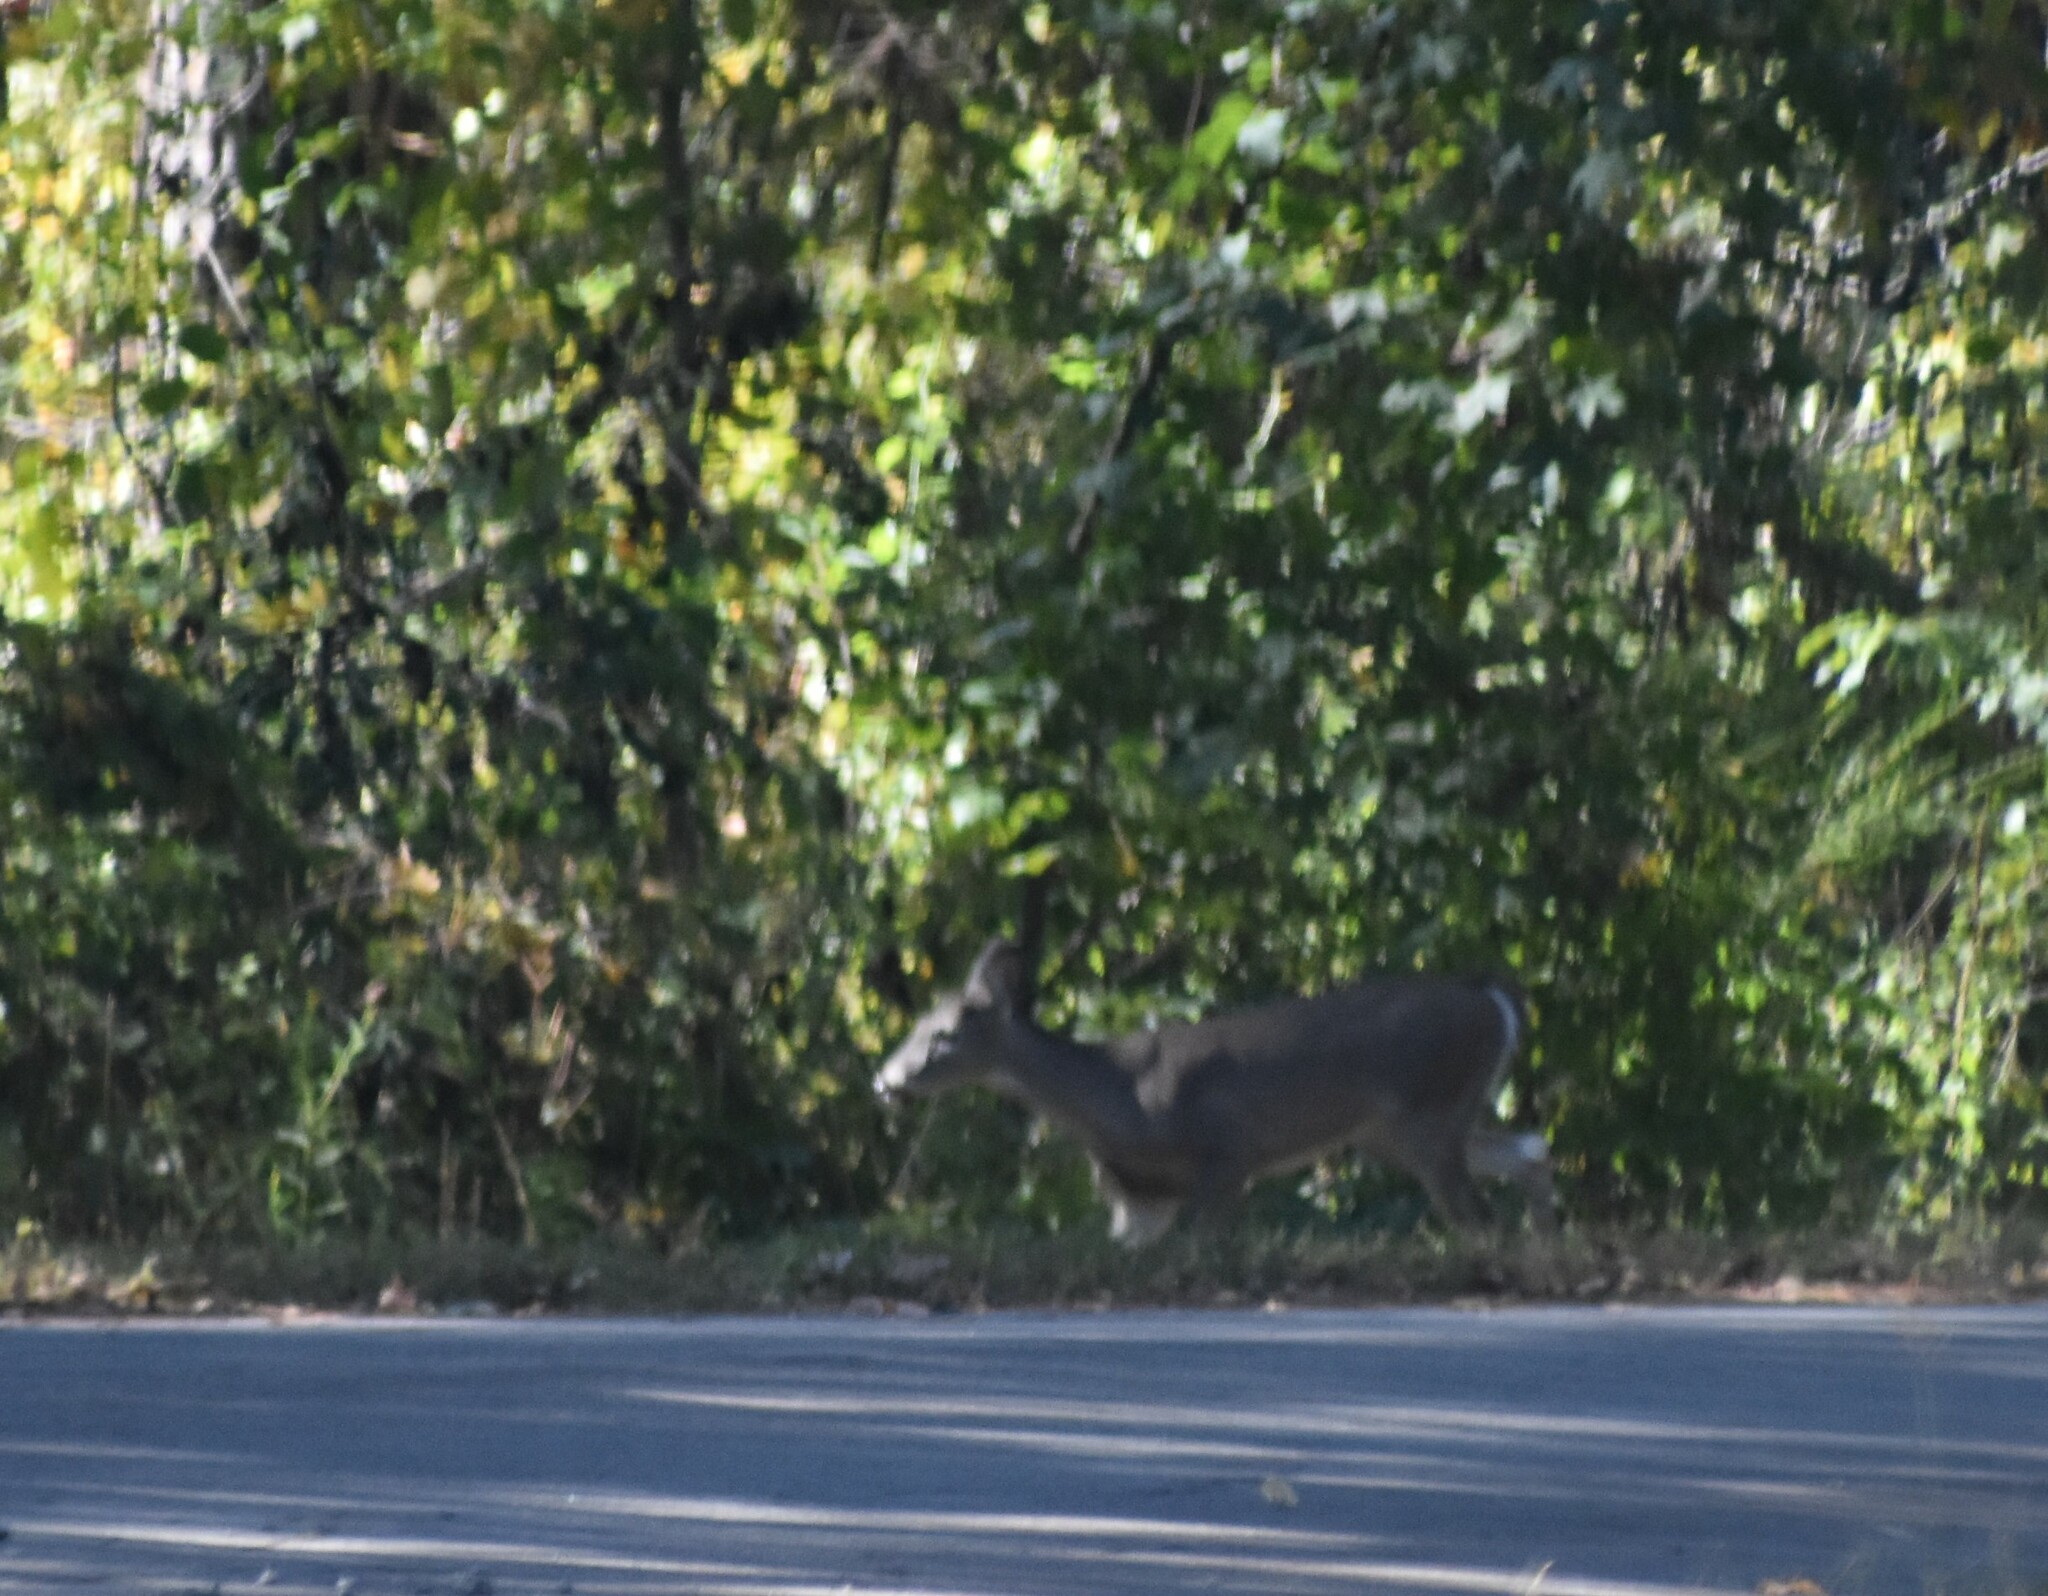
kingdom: Animalia
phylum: Chordata
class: Mammalia
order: Artiodactyla
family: Cervidae
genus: Odocoileus
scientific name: Odocoileus virginianus
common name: White-tailed deer
